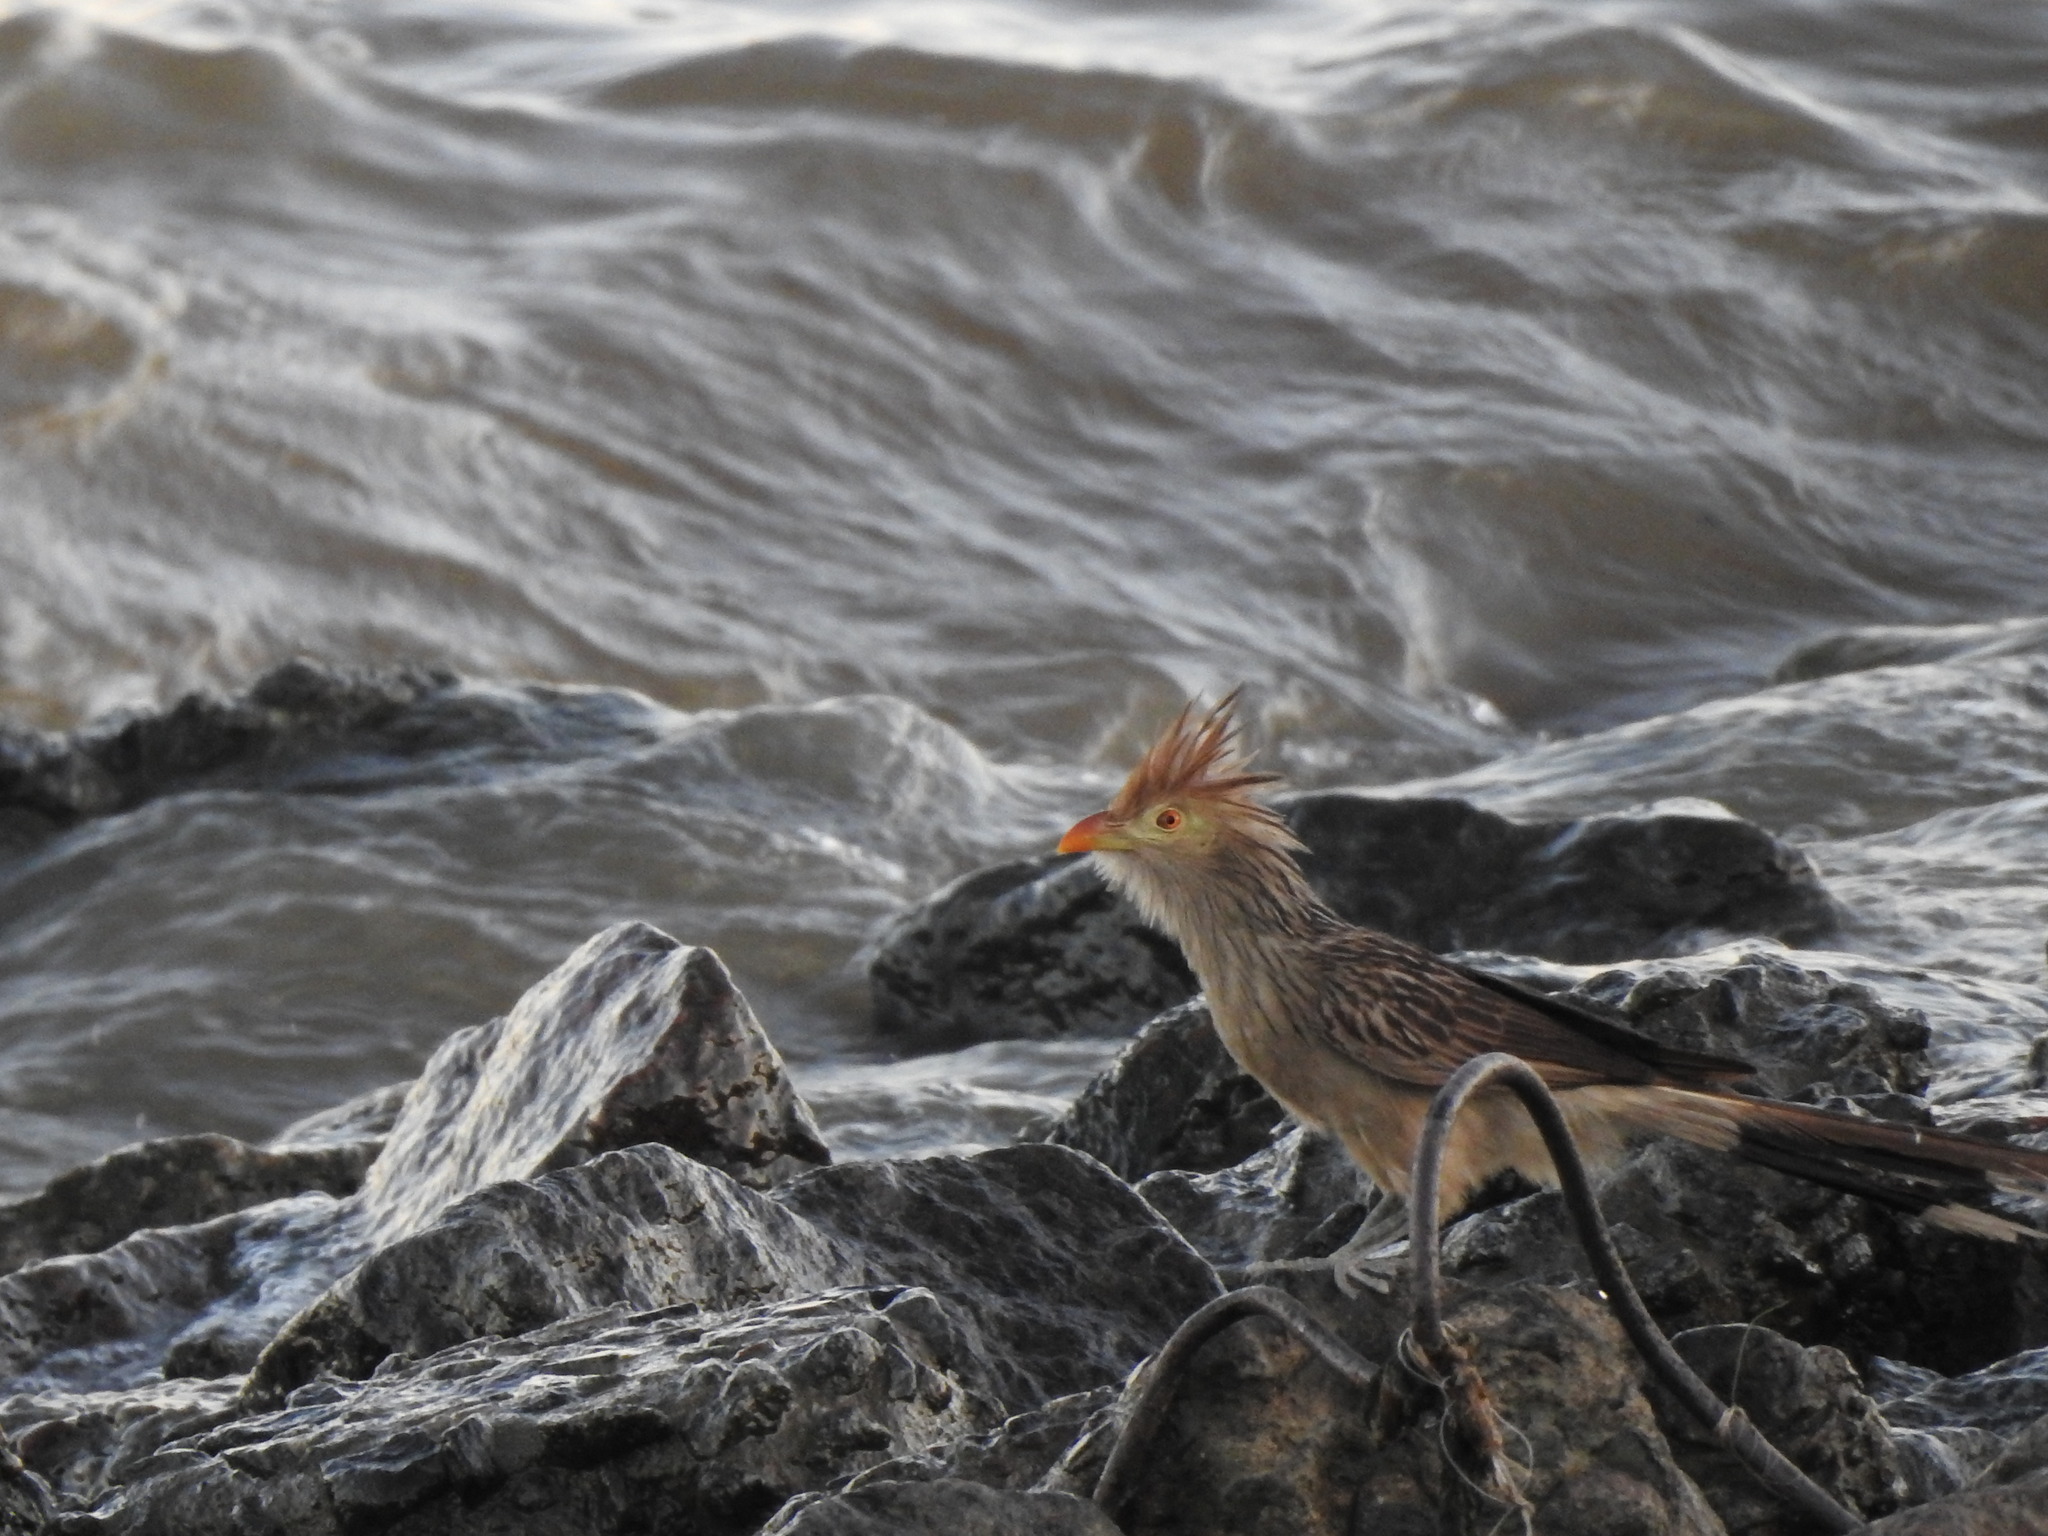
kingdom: Animalia
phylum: Chordata
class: Aves
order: Cuculiformes
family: Cuculidae
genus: Guira
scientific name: Guira guira
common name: Guira cuckoo
